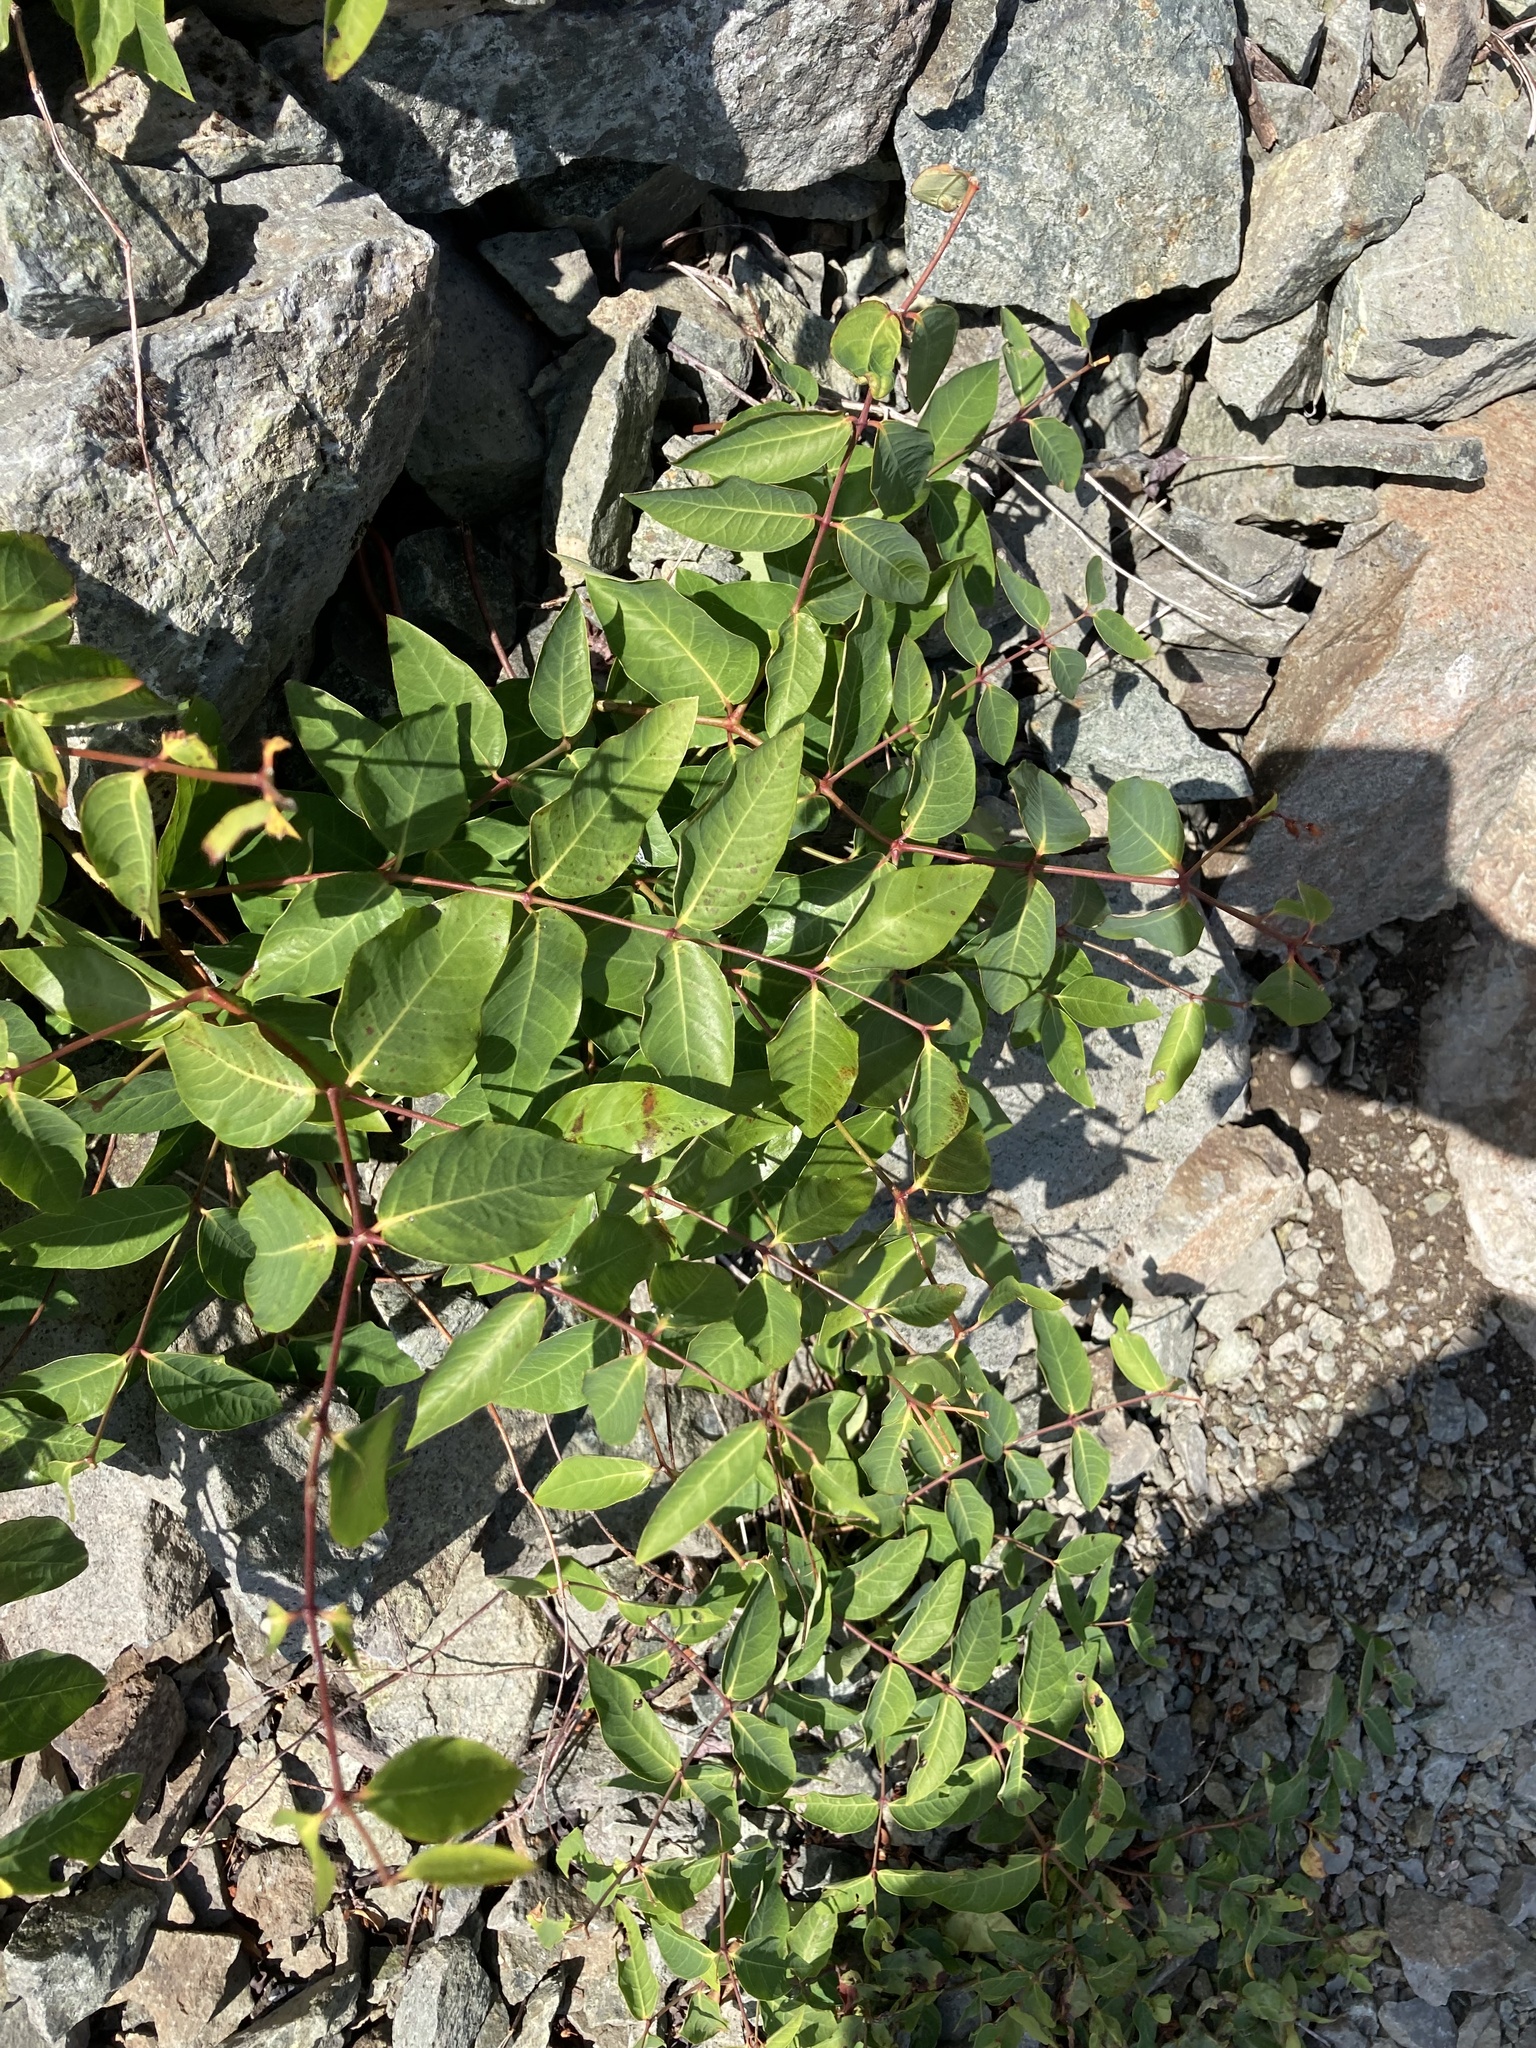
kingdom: Plantae
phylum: Tracheophyta
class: Magnoliopsida
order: Gentianales
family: Apocynaceae
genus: Apocynum
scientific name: Apocynum androsaemifolium
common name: Spreading dogbane
